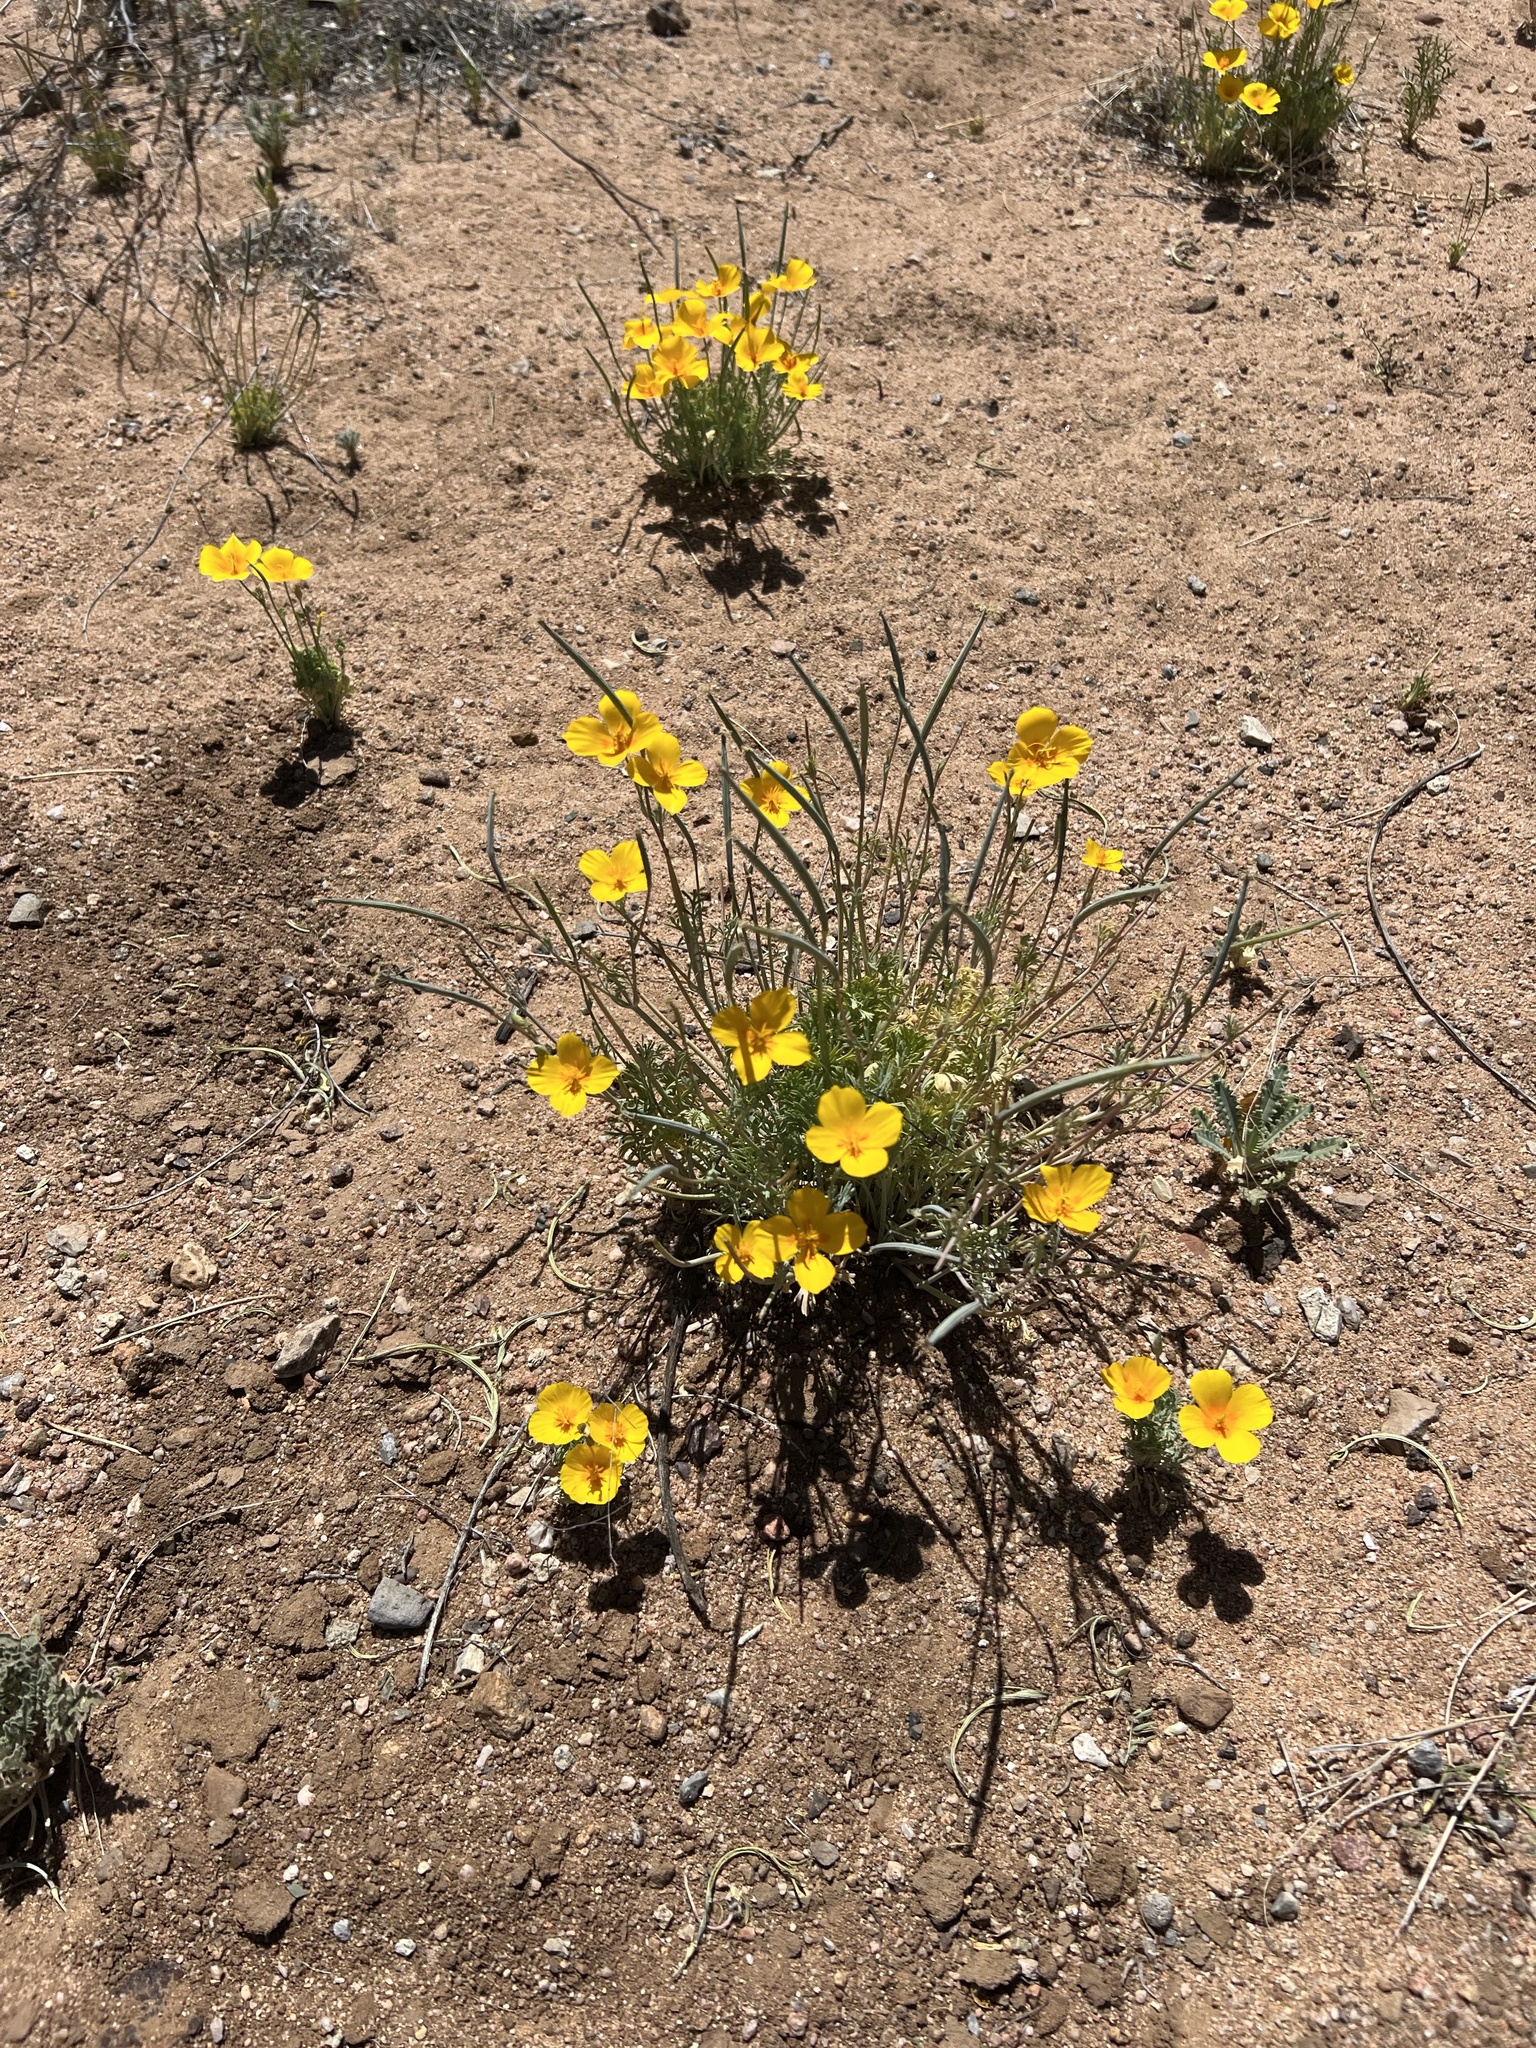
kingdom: Plantae
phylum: Tracheophyta
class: Magnoliopsida
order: Ranunculales
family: Papaveraceae
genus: Eschscholzia
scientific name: Eschscholzia californica
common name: California poppy
